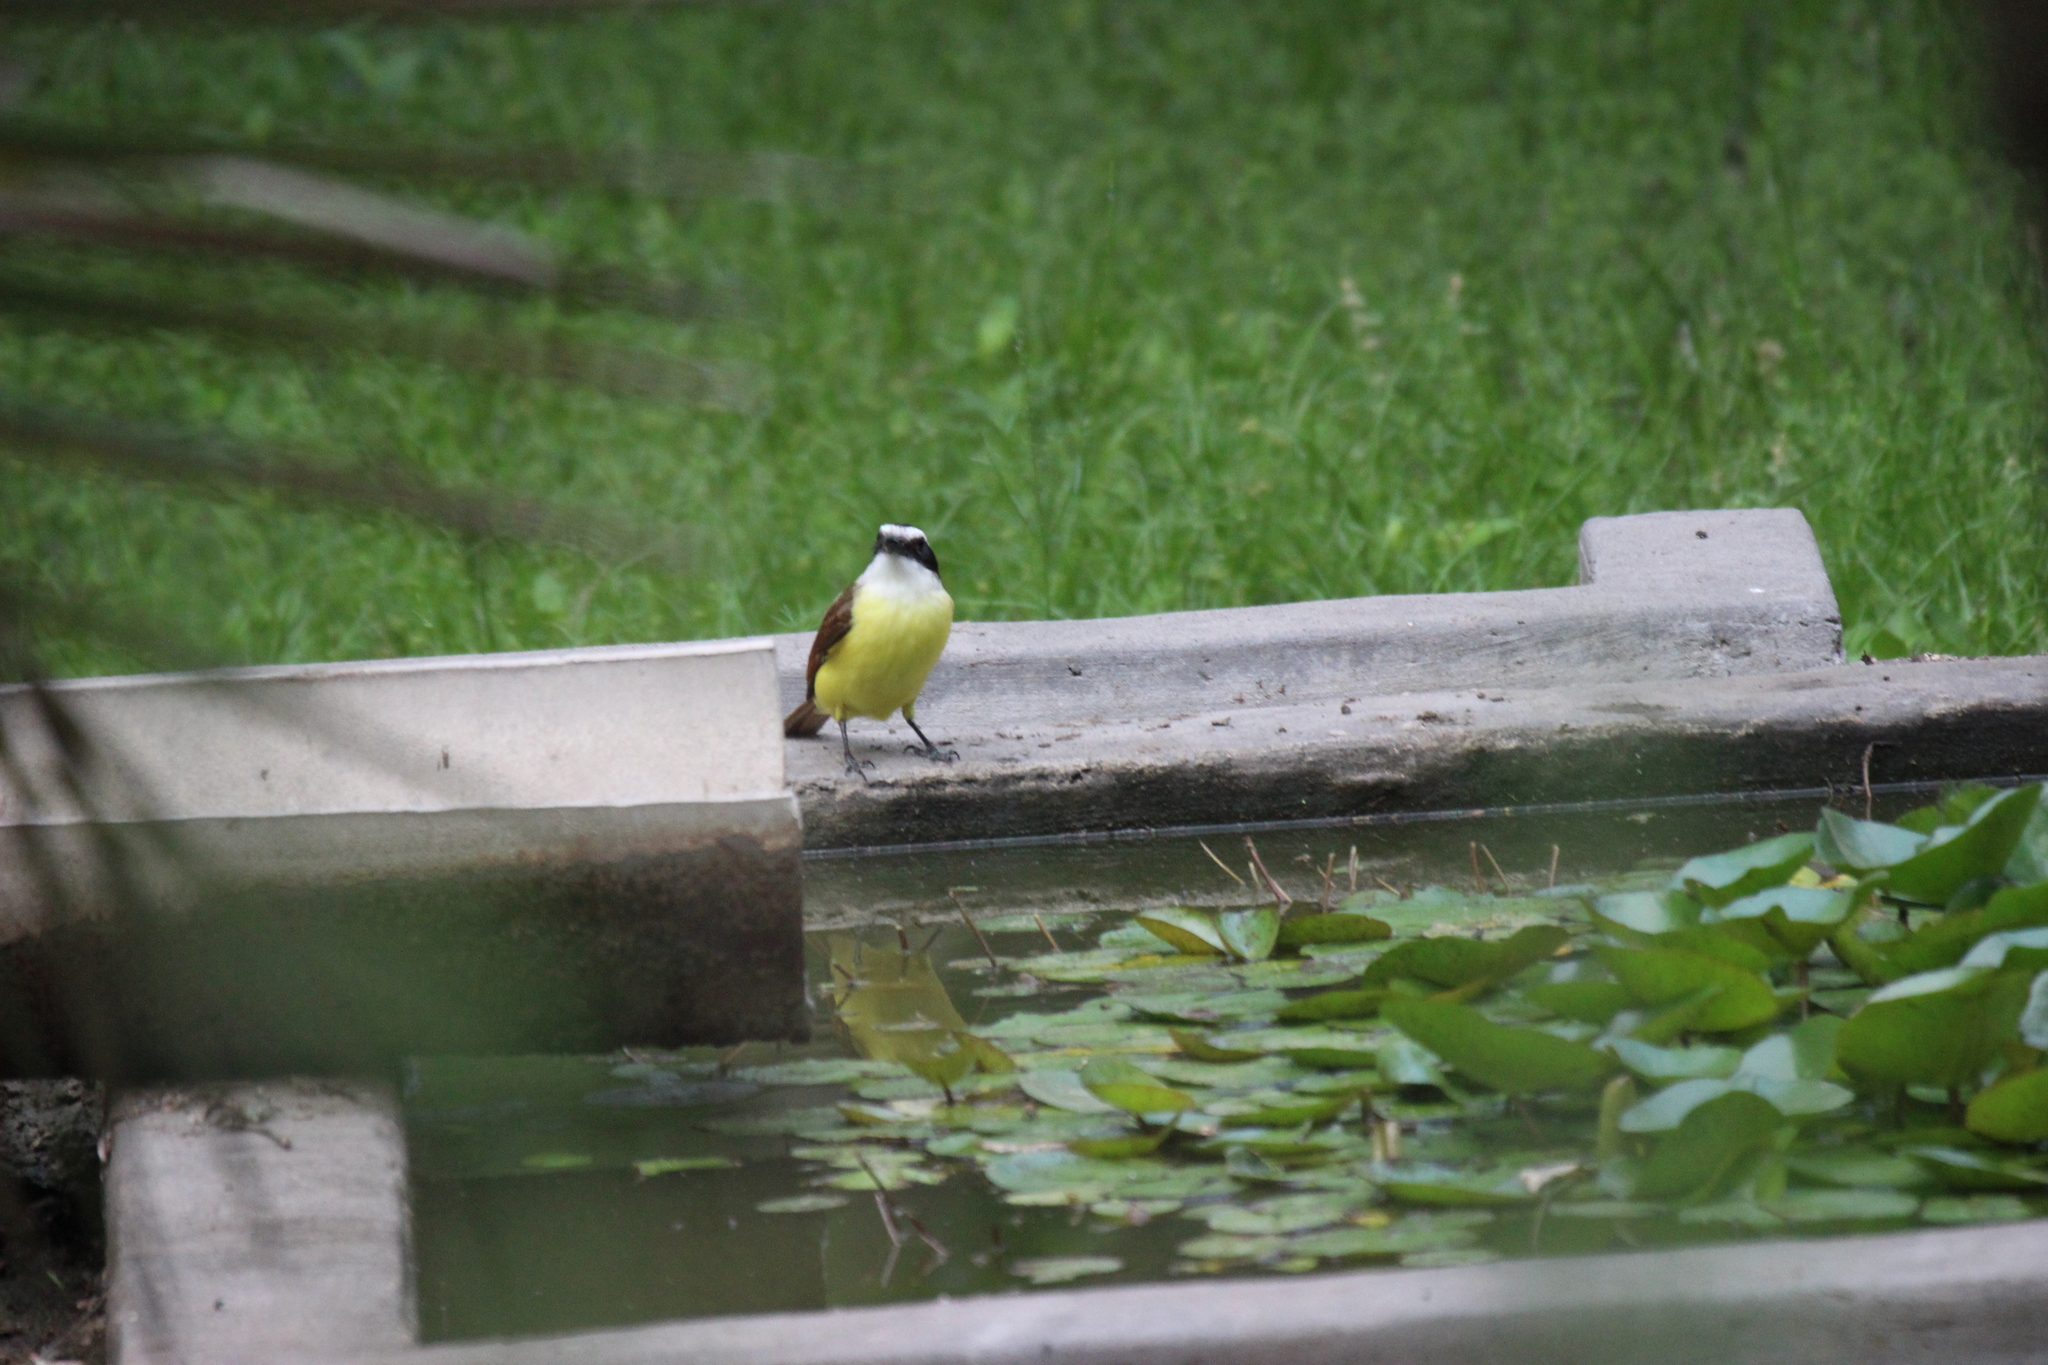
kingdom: Animalia
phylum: Chordata
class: Aves
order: Passeriformes
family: Tyrannidae
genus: Pitangus
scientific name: Pitangus sulphuratus
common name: Great kiskadee
